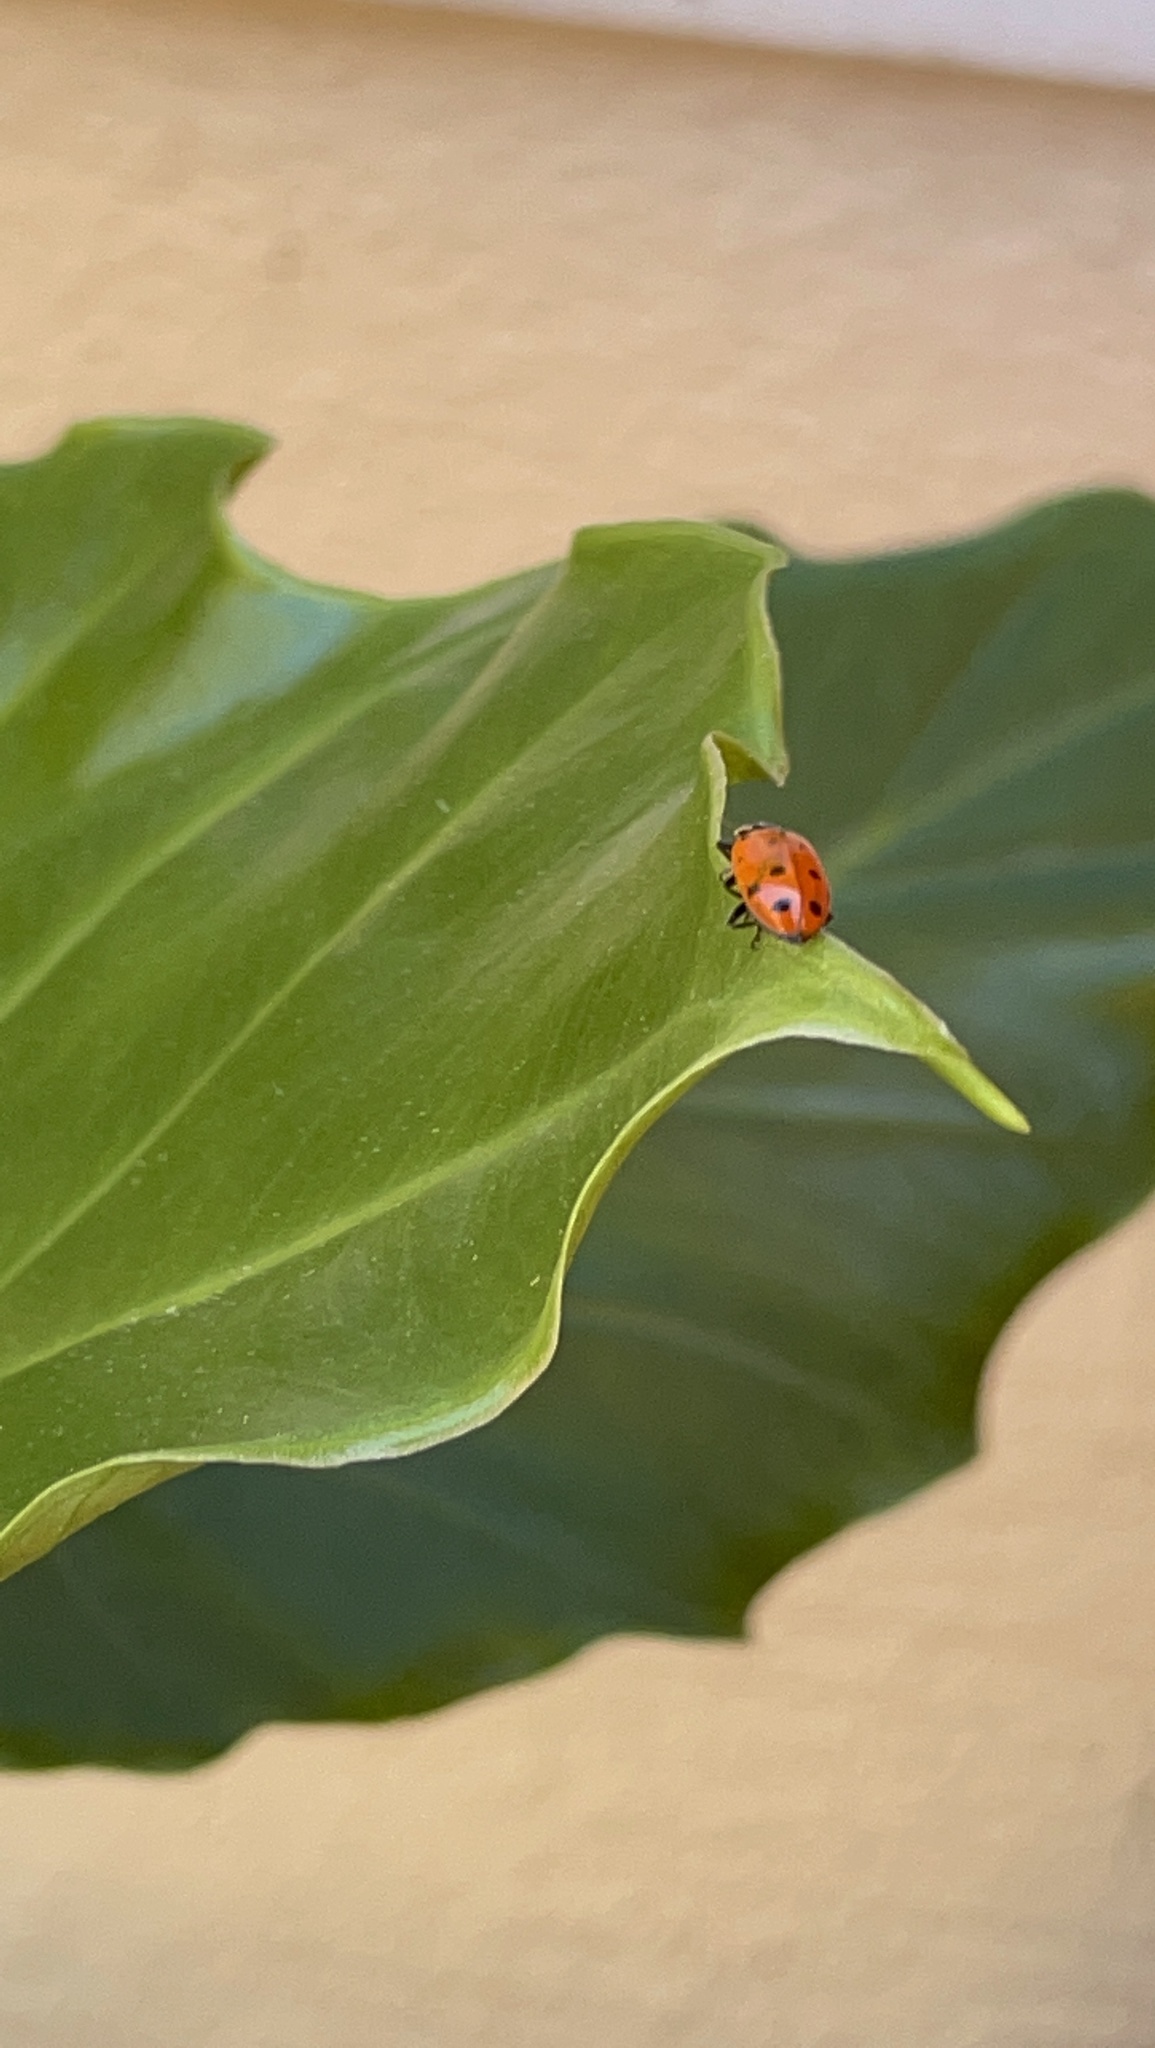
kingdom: Animalia
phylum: Arthropoda
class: Insecta
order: Coleoptera
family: Coccinellidae
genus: Hippodamia
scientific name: Hippodamia convergens
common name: Convergent lady beetle
